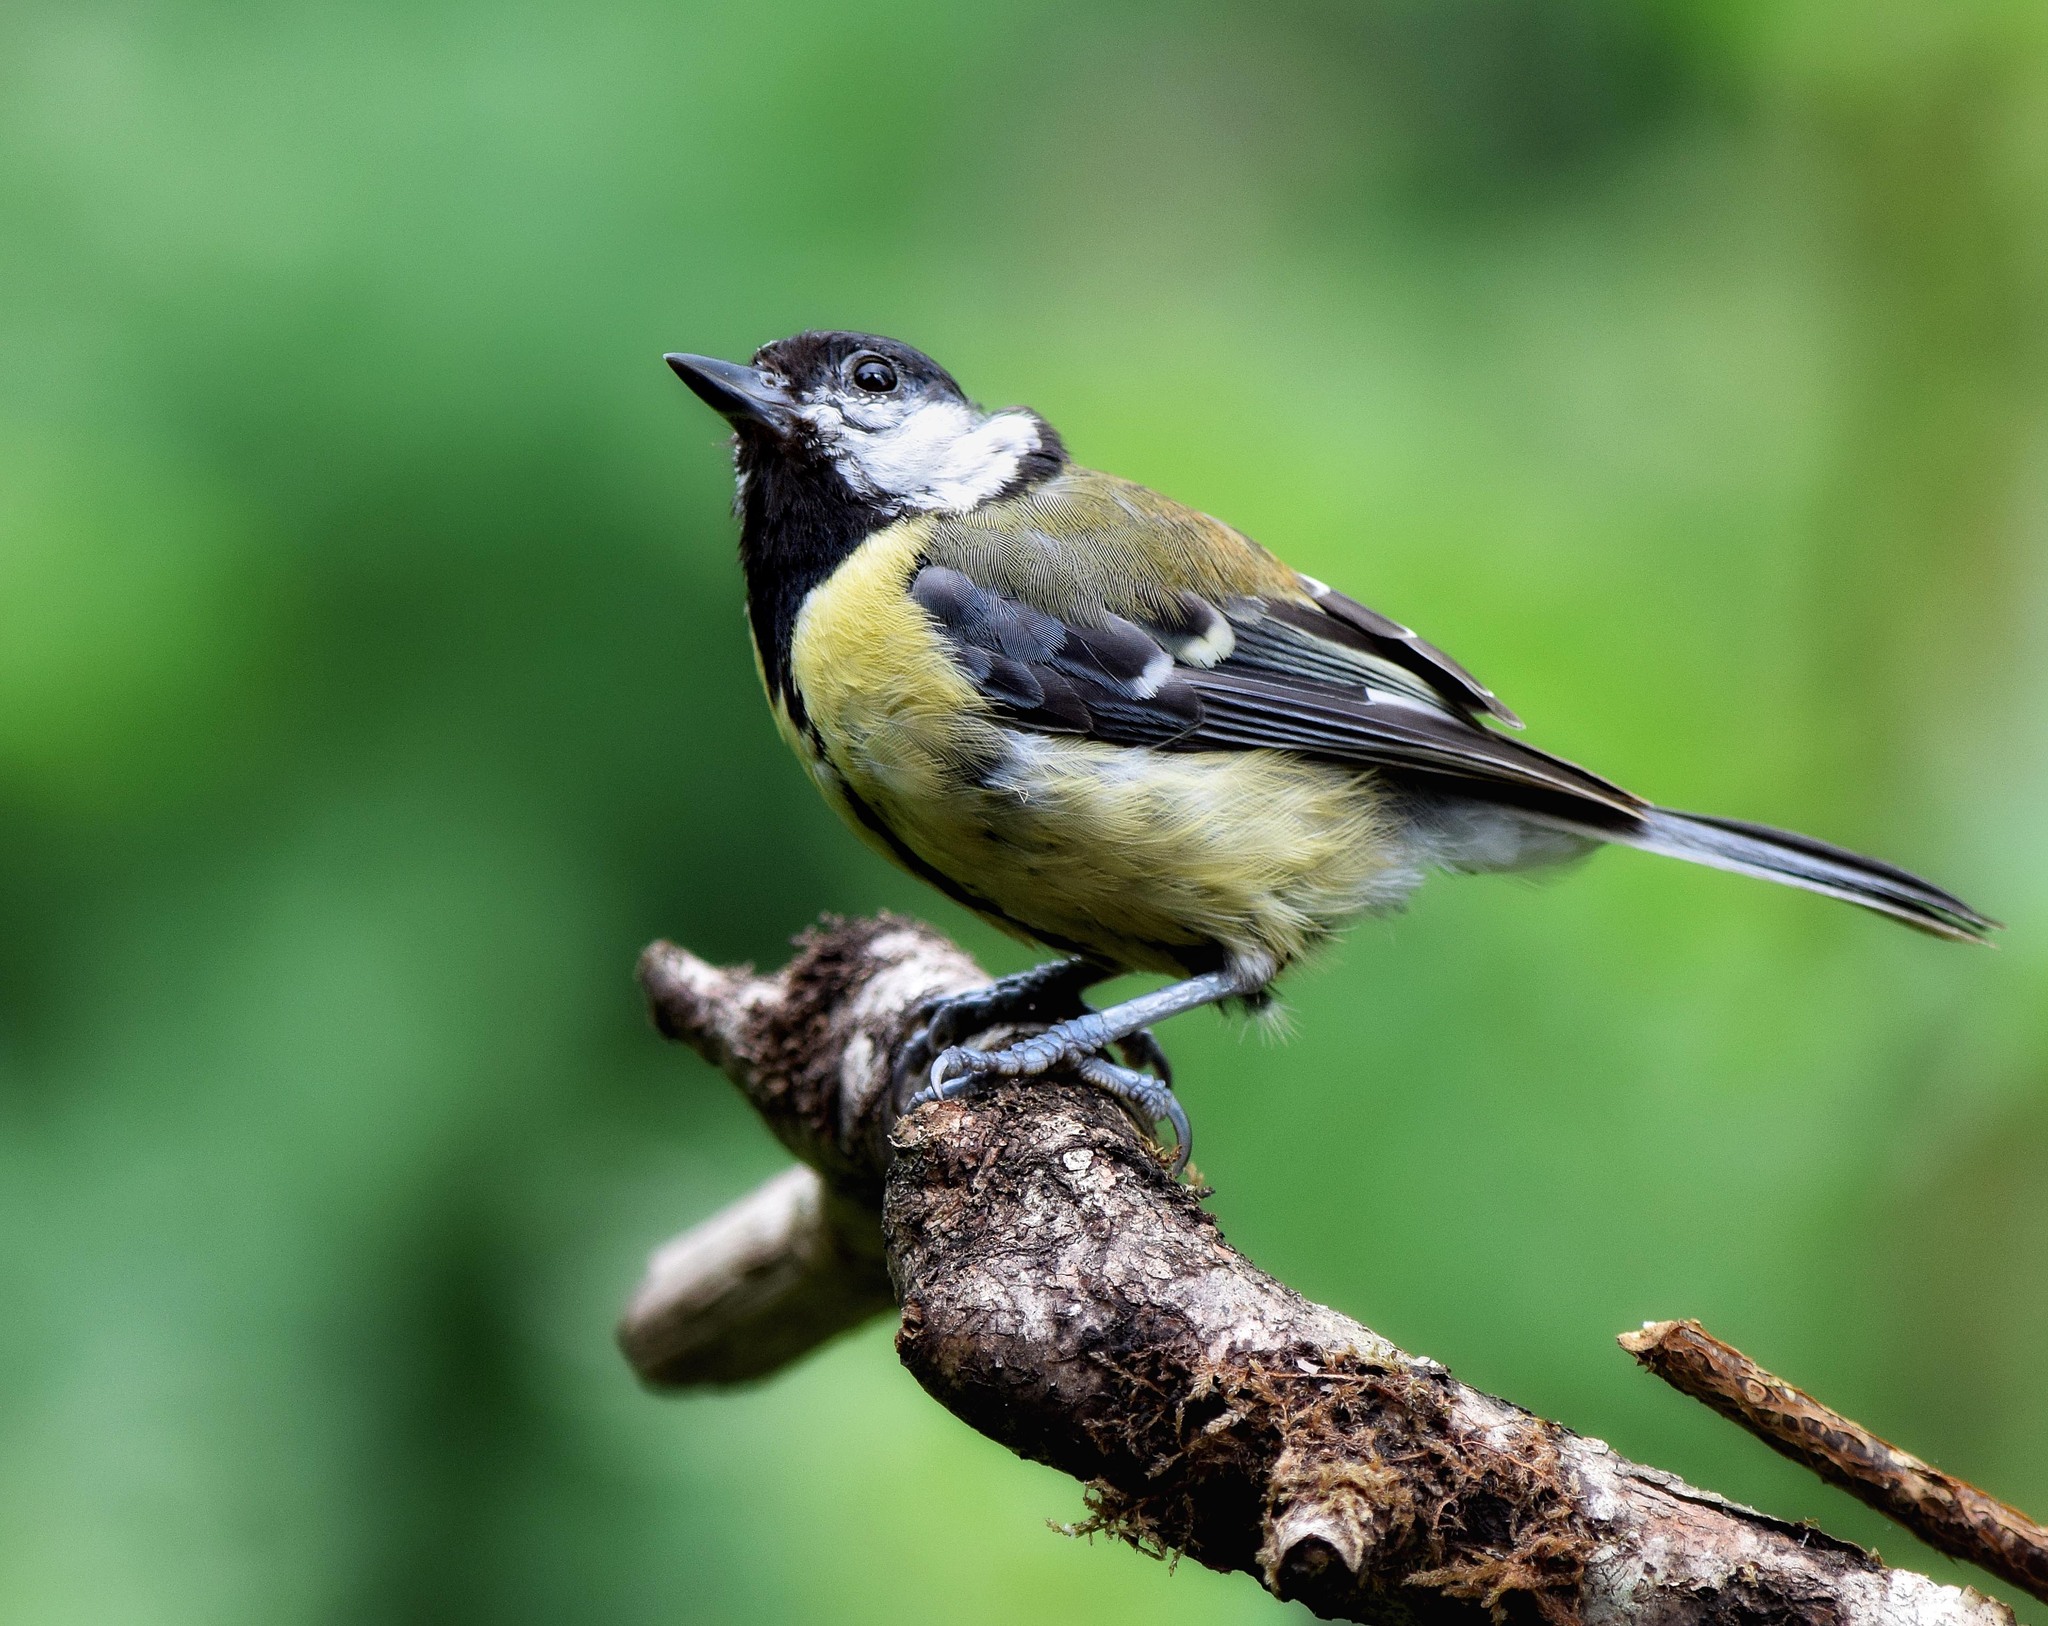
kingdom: Animalia
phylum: Chordata
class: Aves
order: Passeriformes
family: Paridae
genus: Parus
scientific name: Parus major
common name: Great tit
